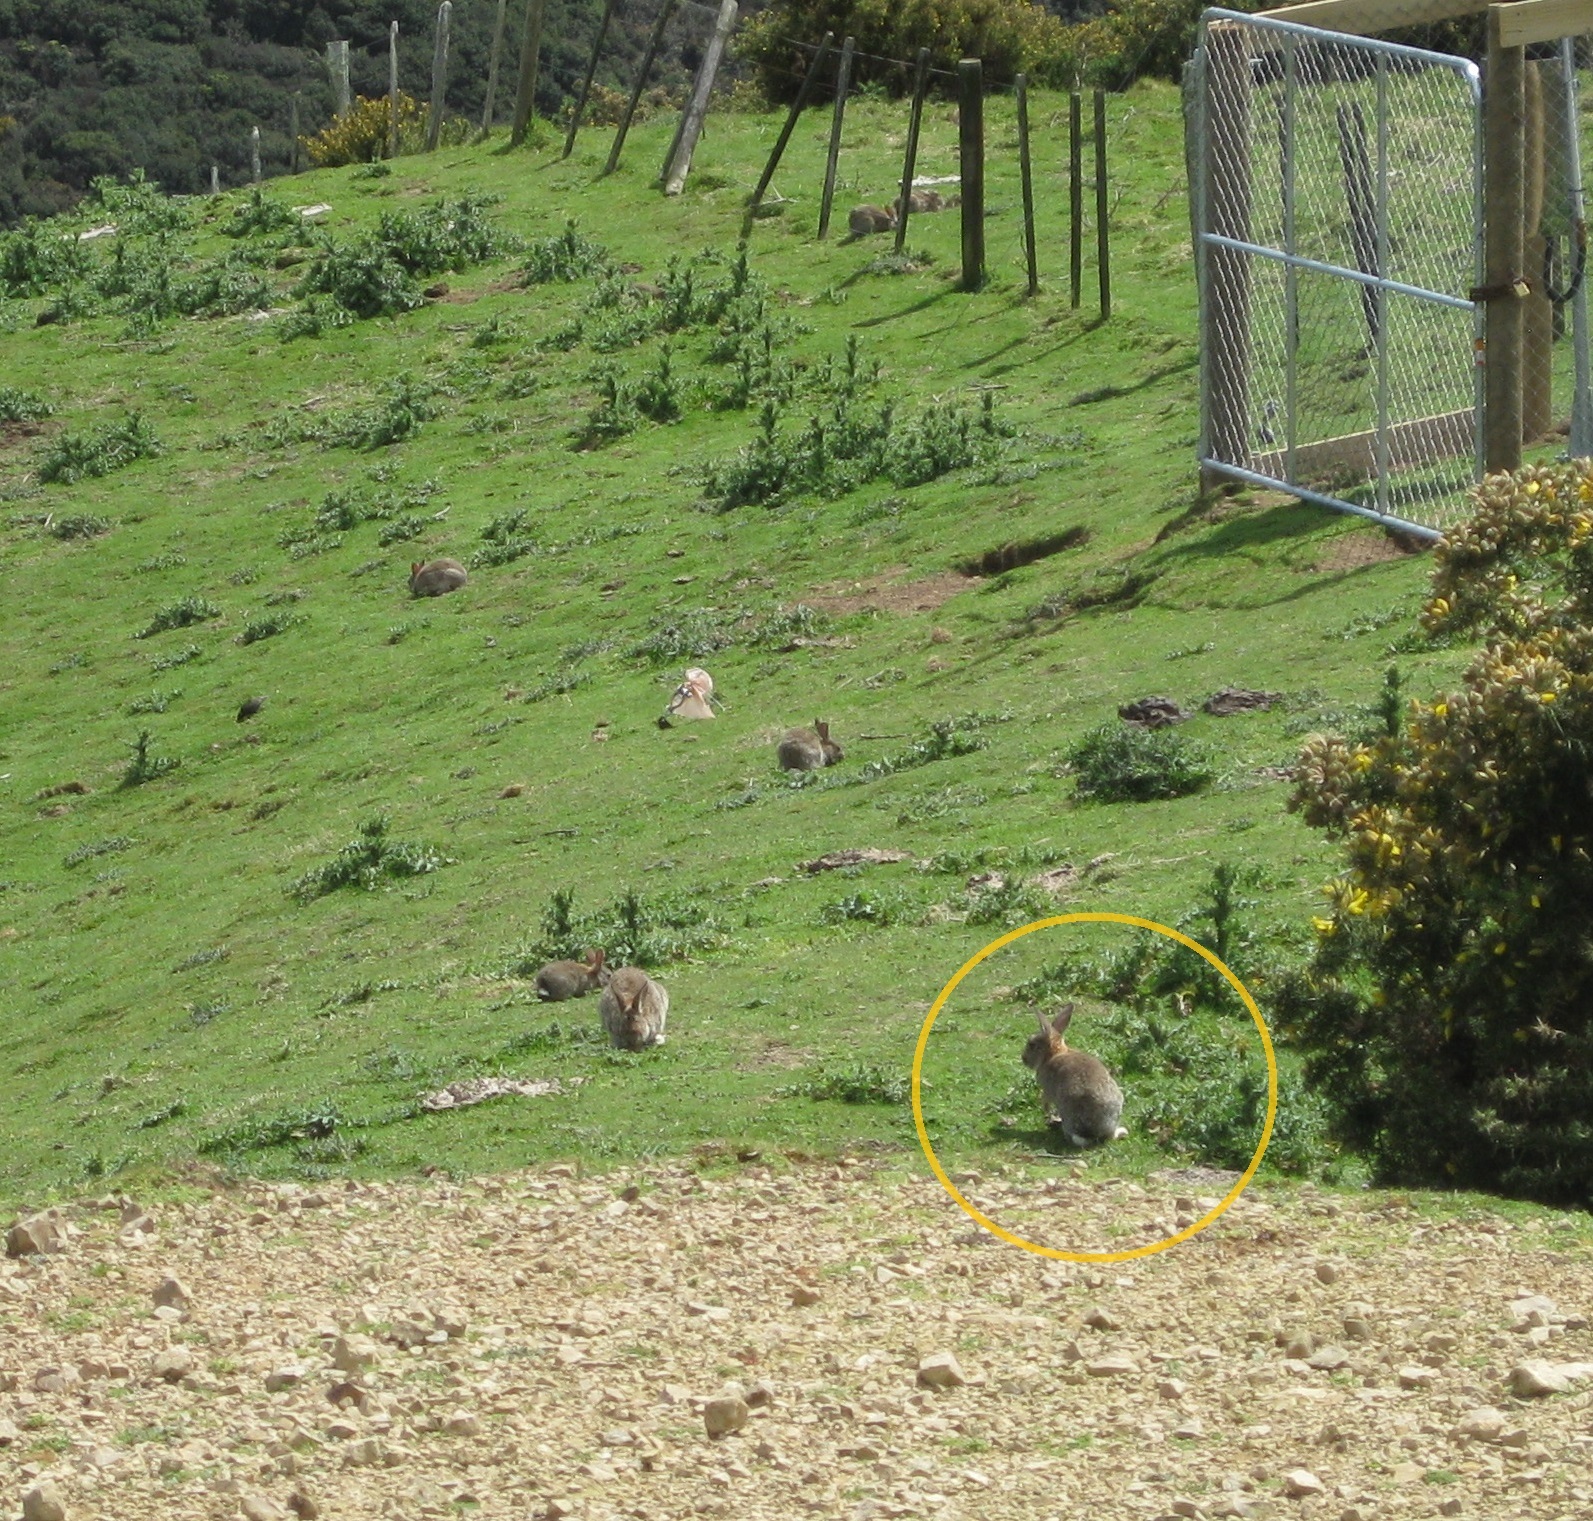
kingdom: Animalia
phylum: Chordata
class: Mammalia
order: Lagomorpha
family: Leporidae
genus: Oryctolagus
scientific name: Oryctolagus cuniculus
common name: European rabbit
